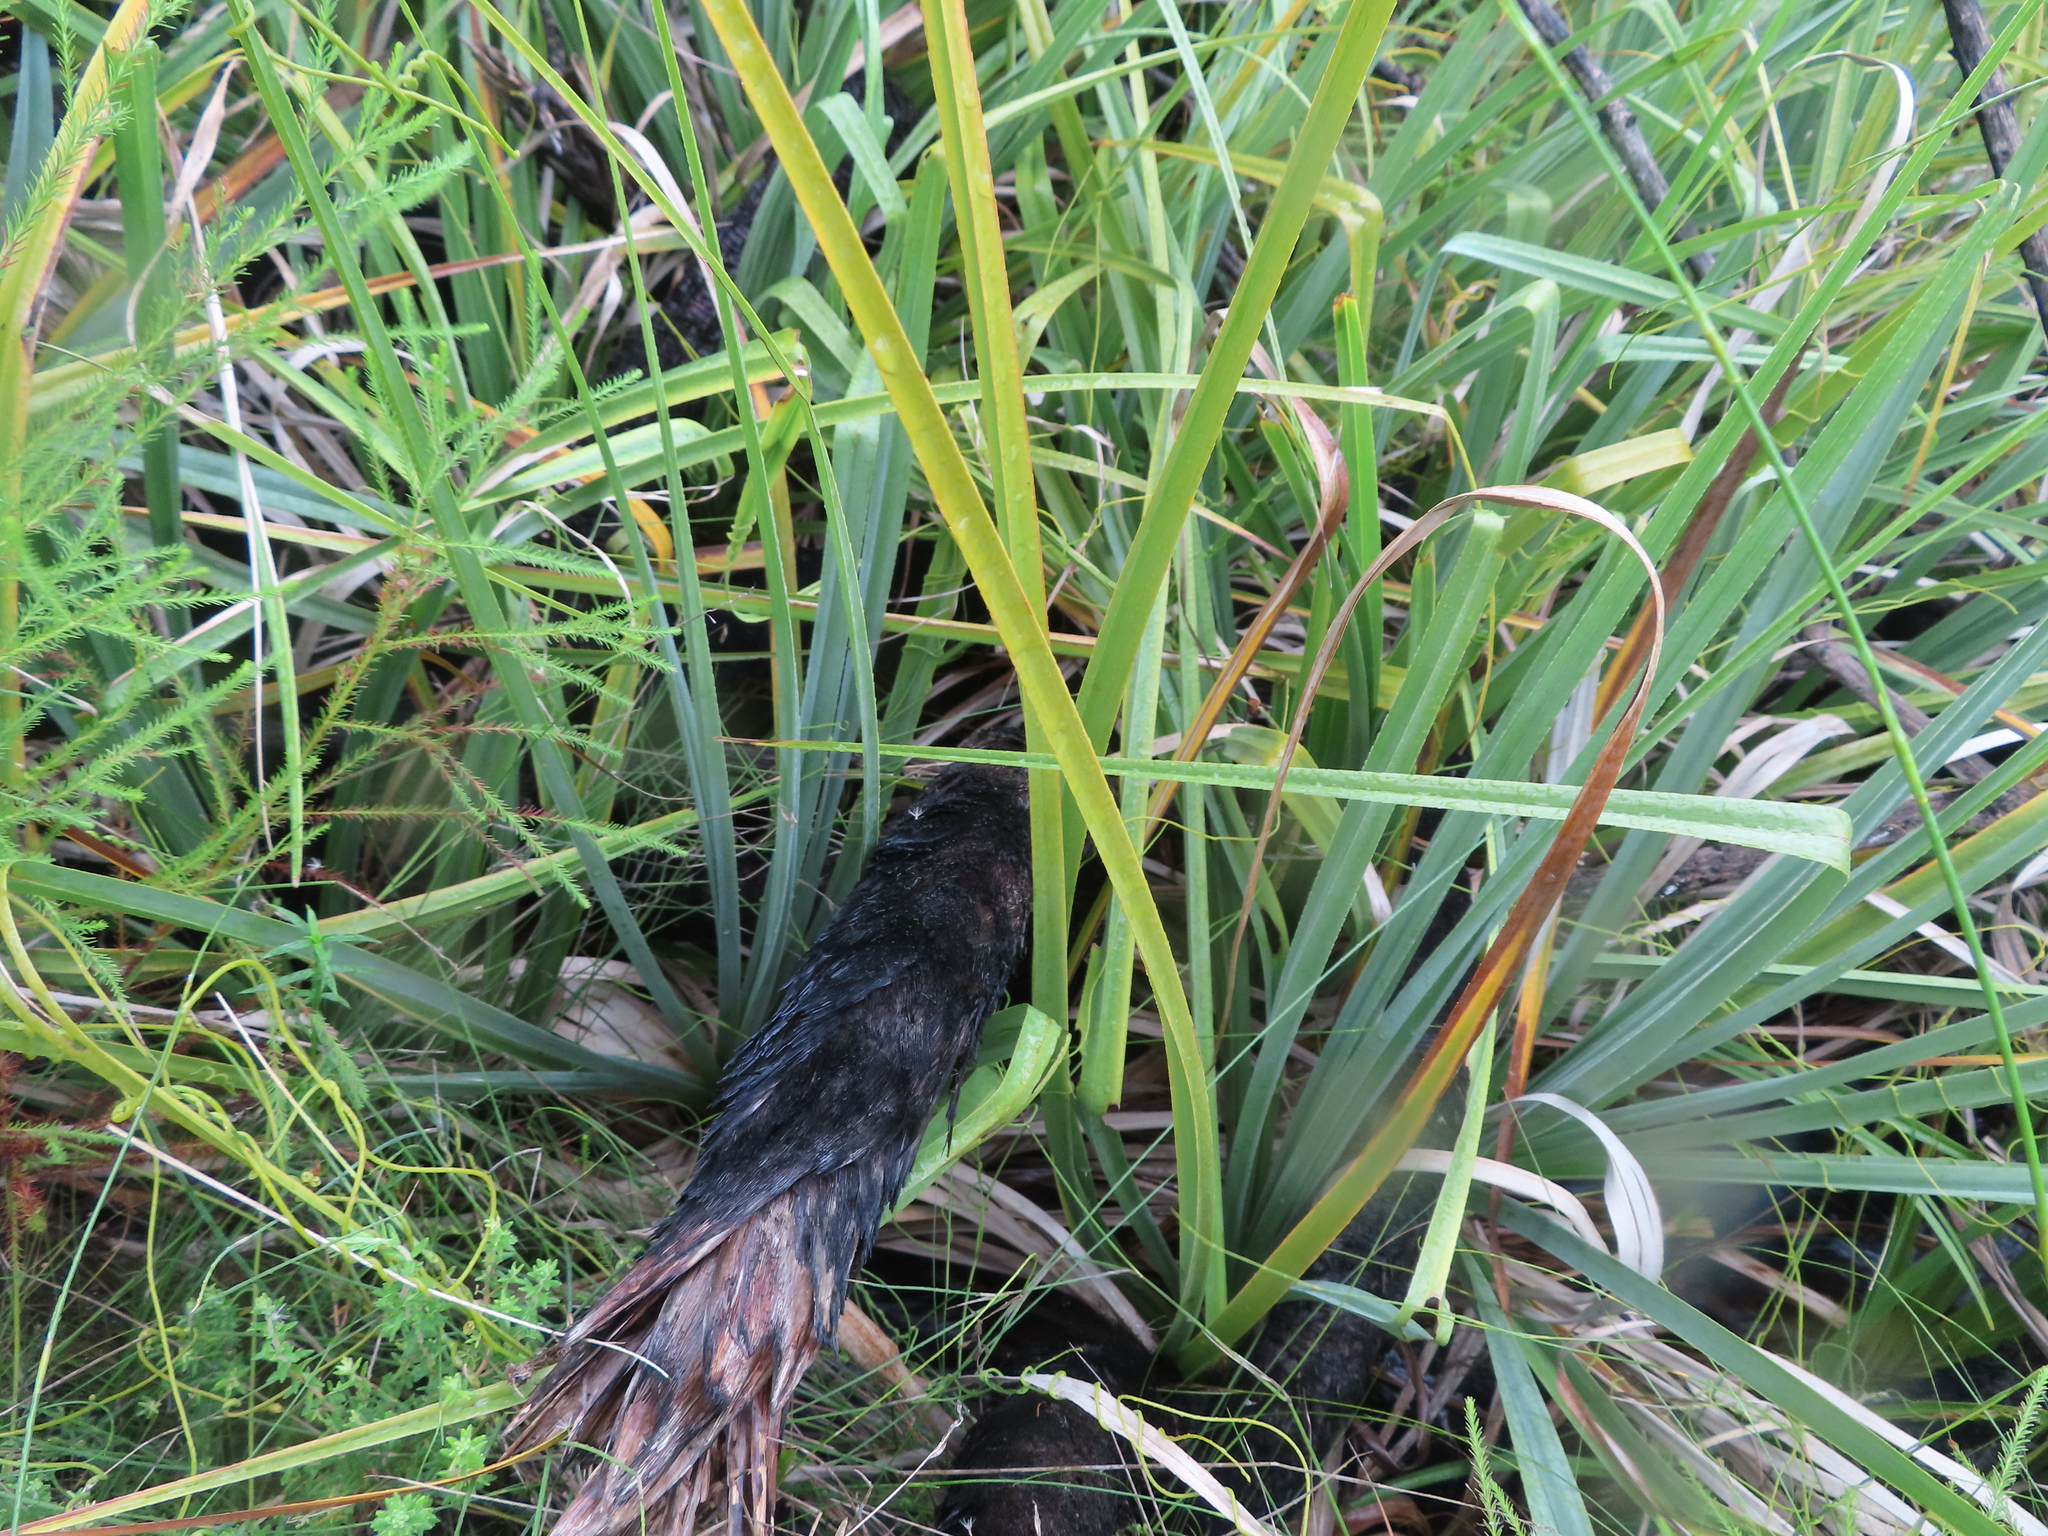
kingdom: Plantae
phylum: Tracheophyta
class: Liliopsida
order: Poales
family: Thurniaceae
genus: Prionium
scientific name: Prionium serratum
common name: Palmiet
